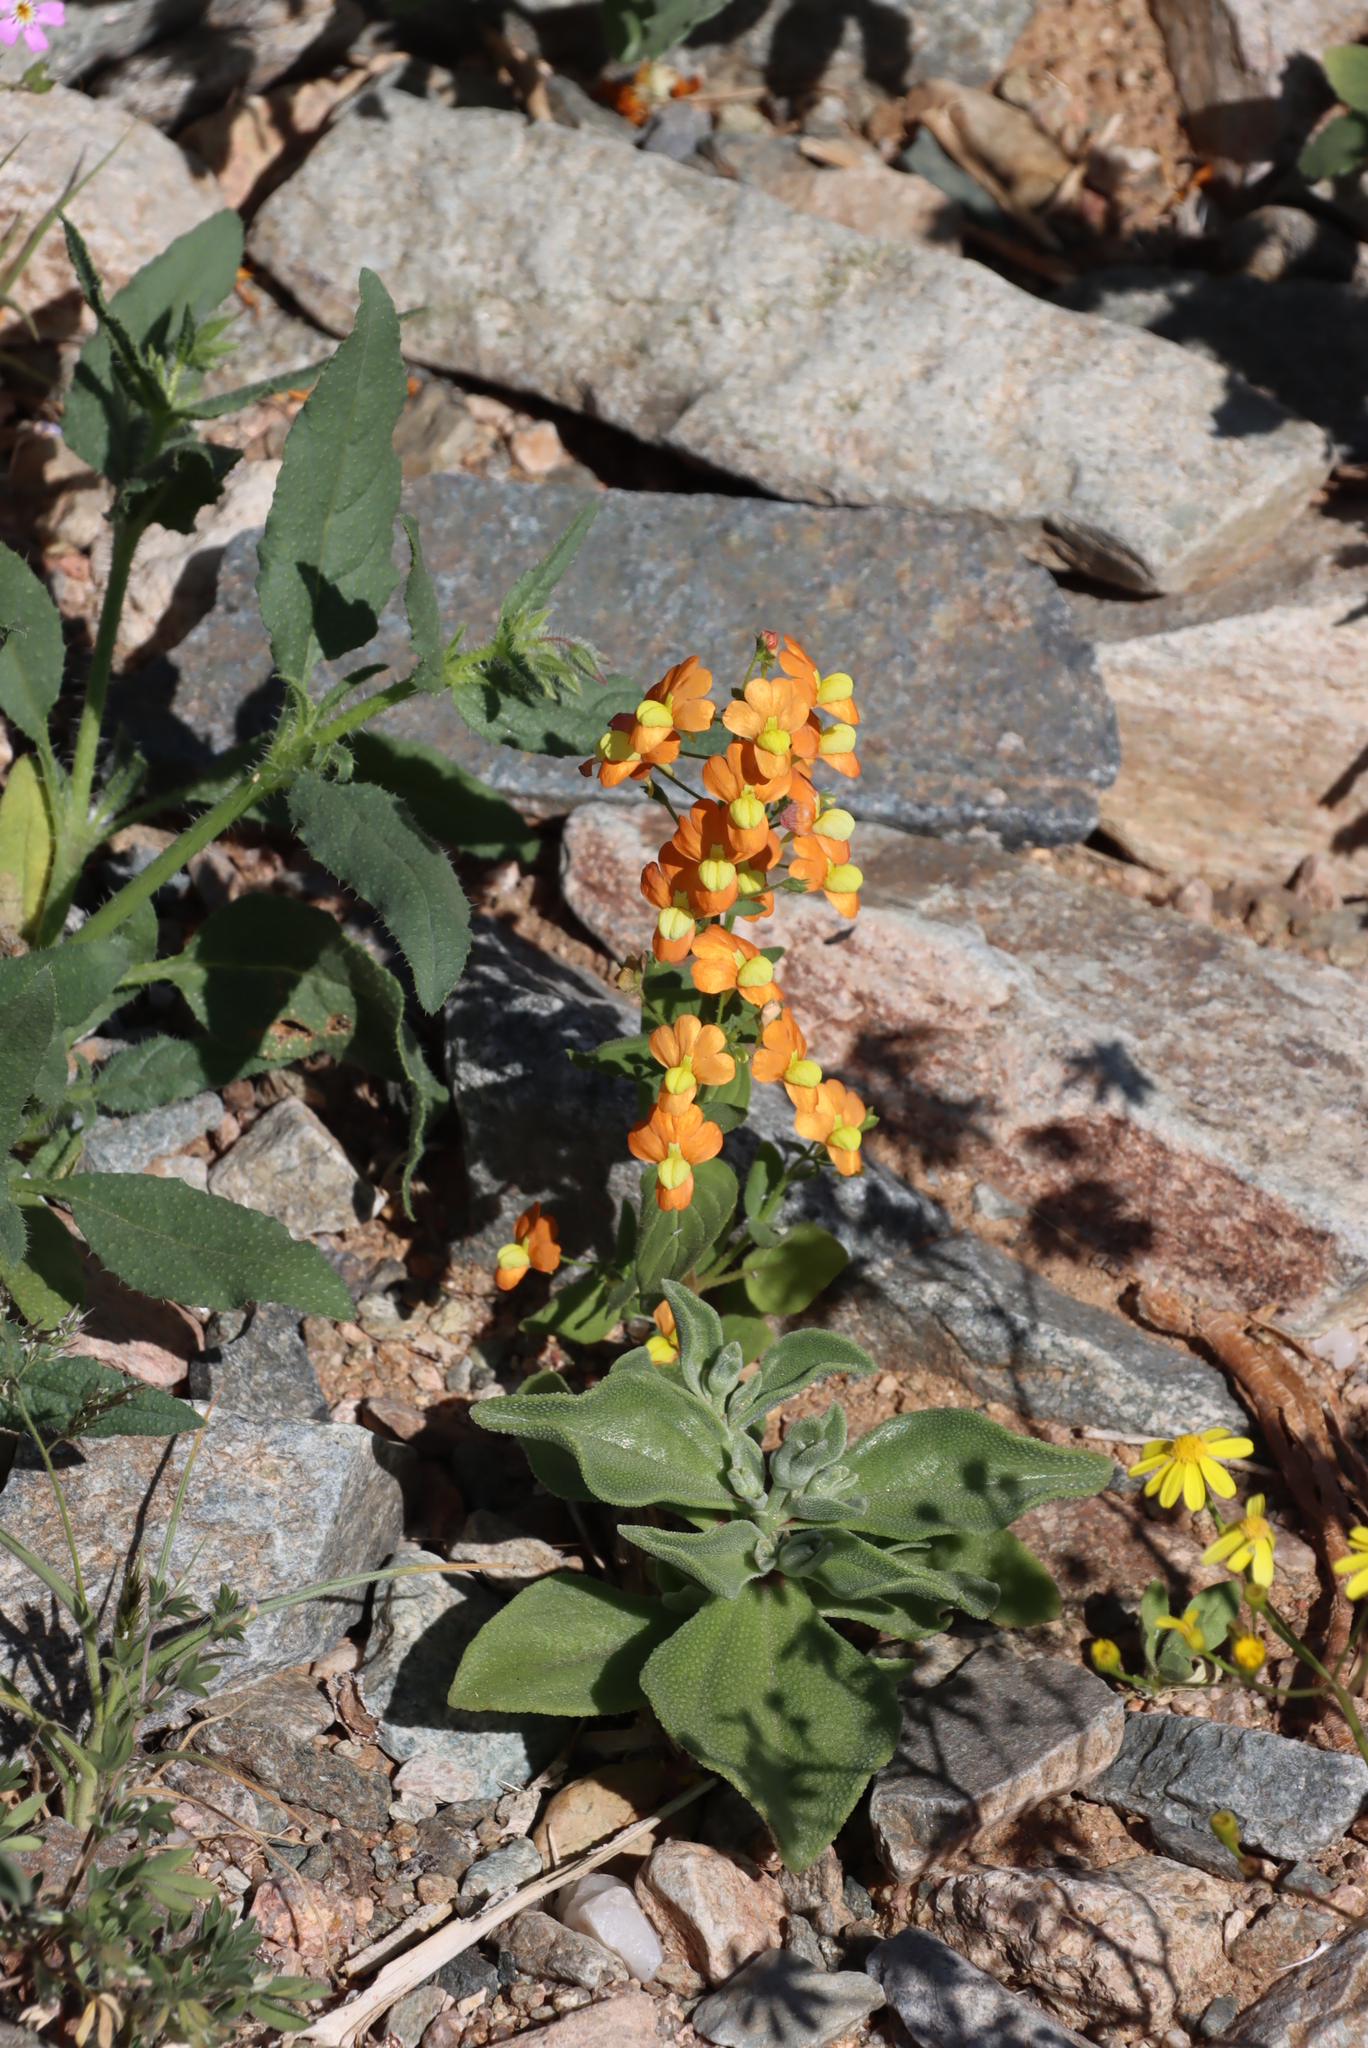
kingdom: Plantae
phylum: Tracheophyta
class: Magnoliopsida
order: Lamiales
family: Scrophulariaceae
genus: Nemesia
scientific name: Nemesia williamsonii
